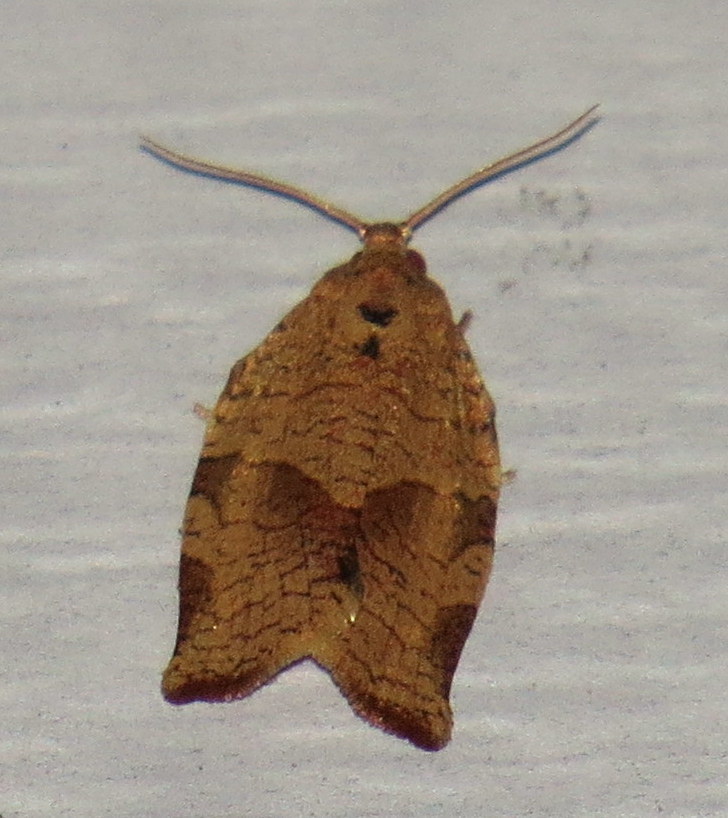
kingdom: Animalia
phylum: Arthropoda
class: Insecta
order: Lepidoptera
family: Tortricidae
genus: Choristoneura
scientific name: Choristoneura rosaceana
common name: Oblique-banded leafroller moth
